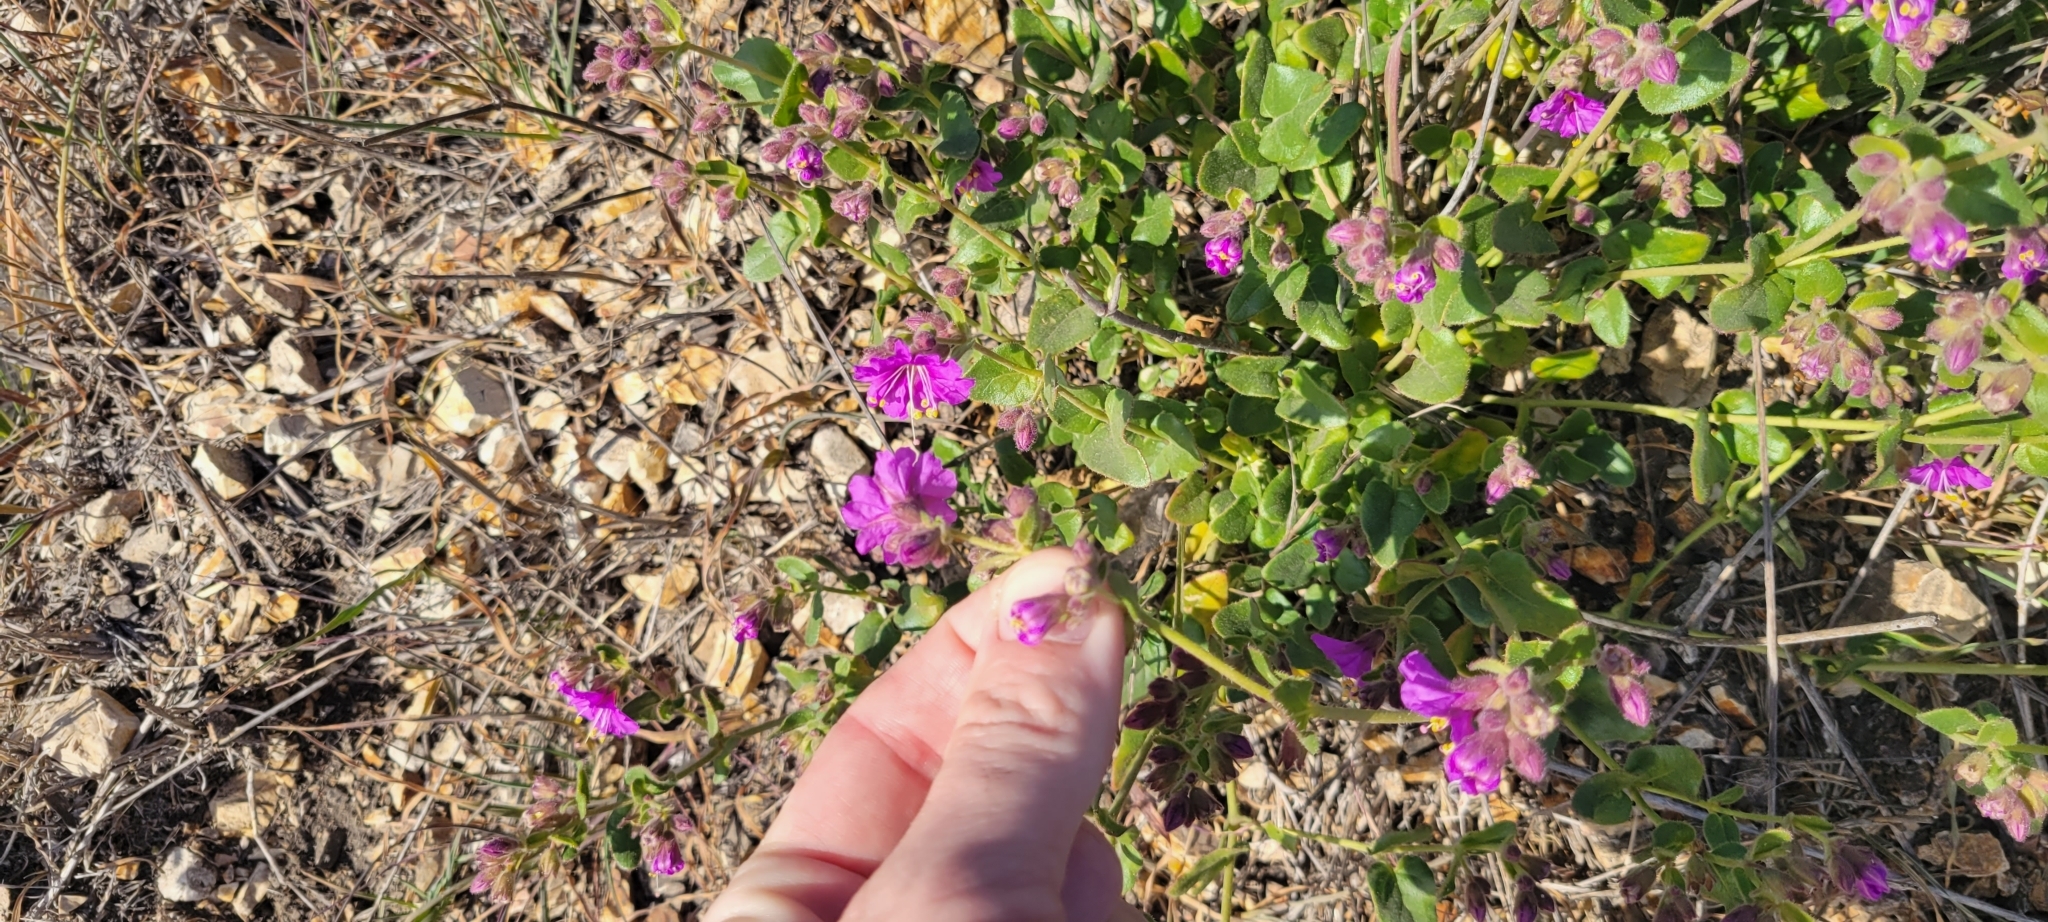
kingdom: Plantae
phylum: Tracheophyta
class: Magnoliopsida
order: Caryophyllales
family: Nyctaginaceae
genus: Mirabilis
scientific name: Mirabilis laevis
